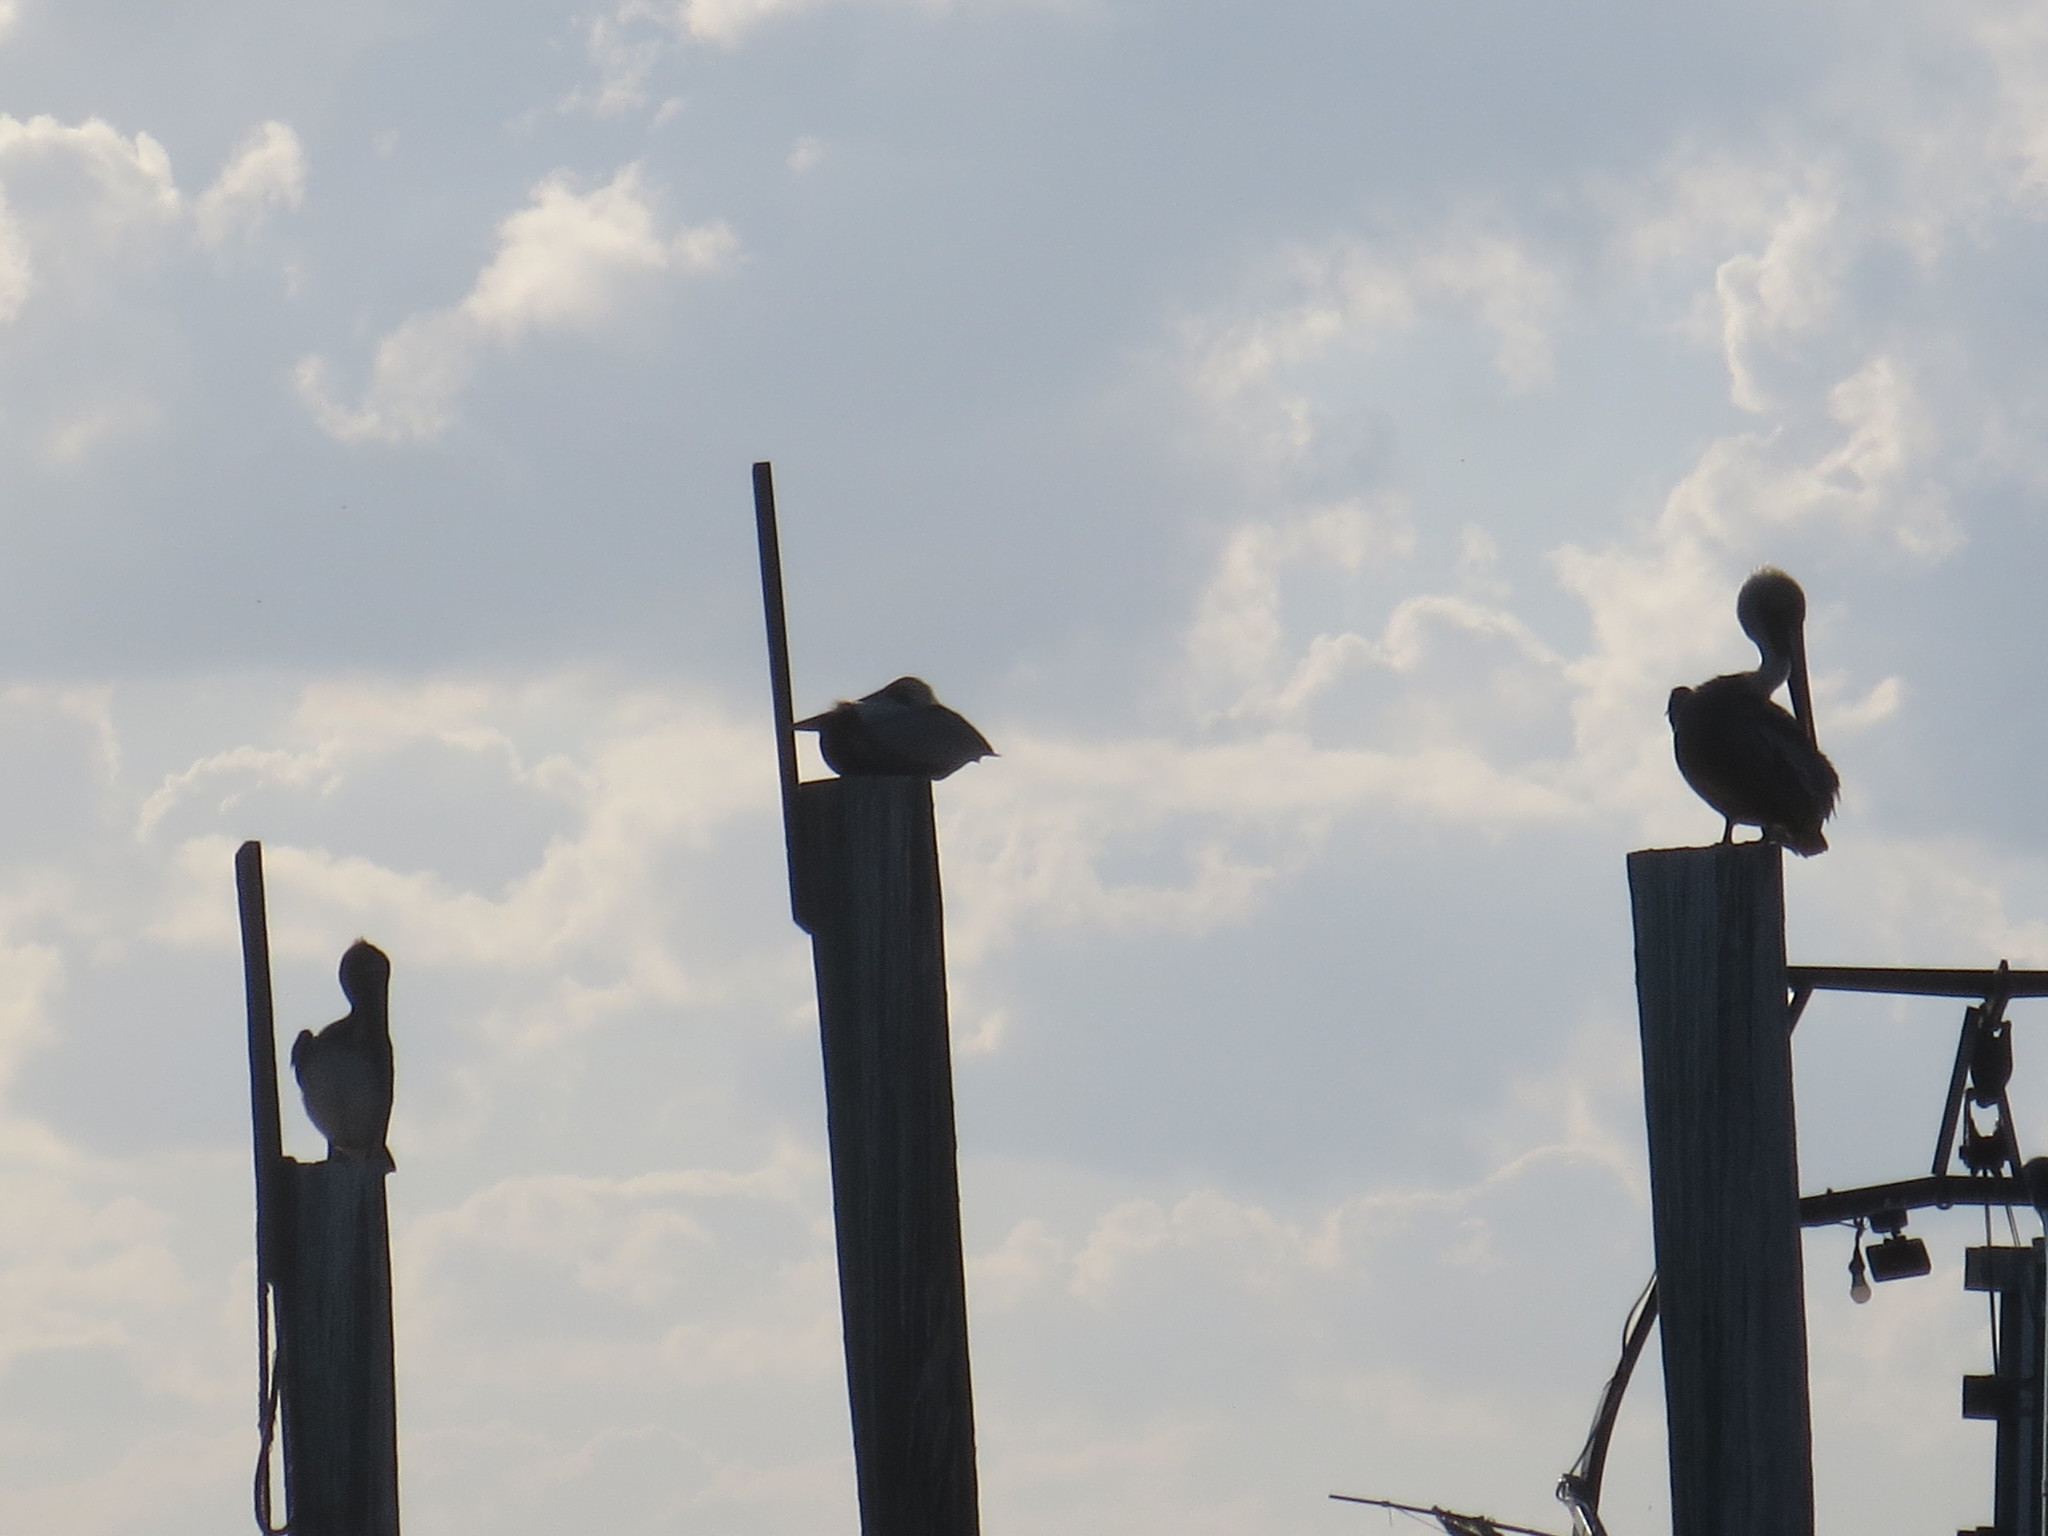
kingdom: Animalia
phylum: Chordata
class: Aves
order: Pelecaniformes
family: Pelecanidae
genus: Pelecanus
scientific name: Pelecanus occidentalis
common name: Brown pelican
